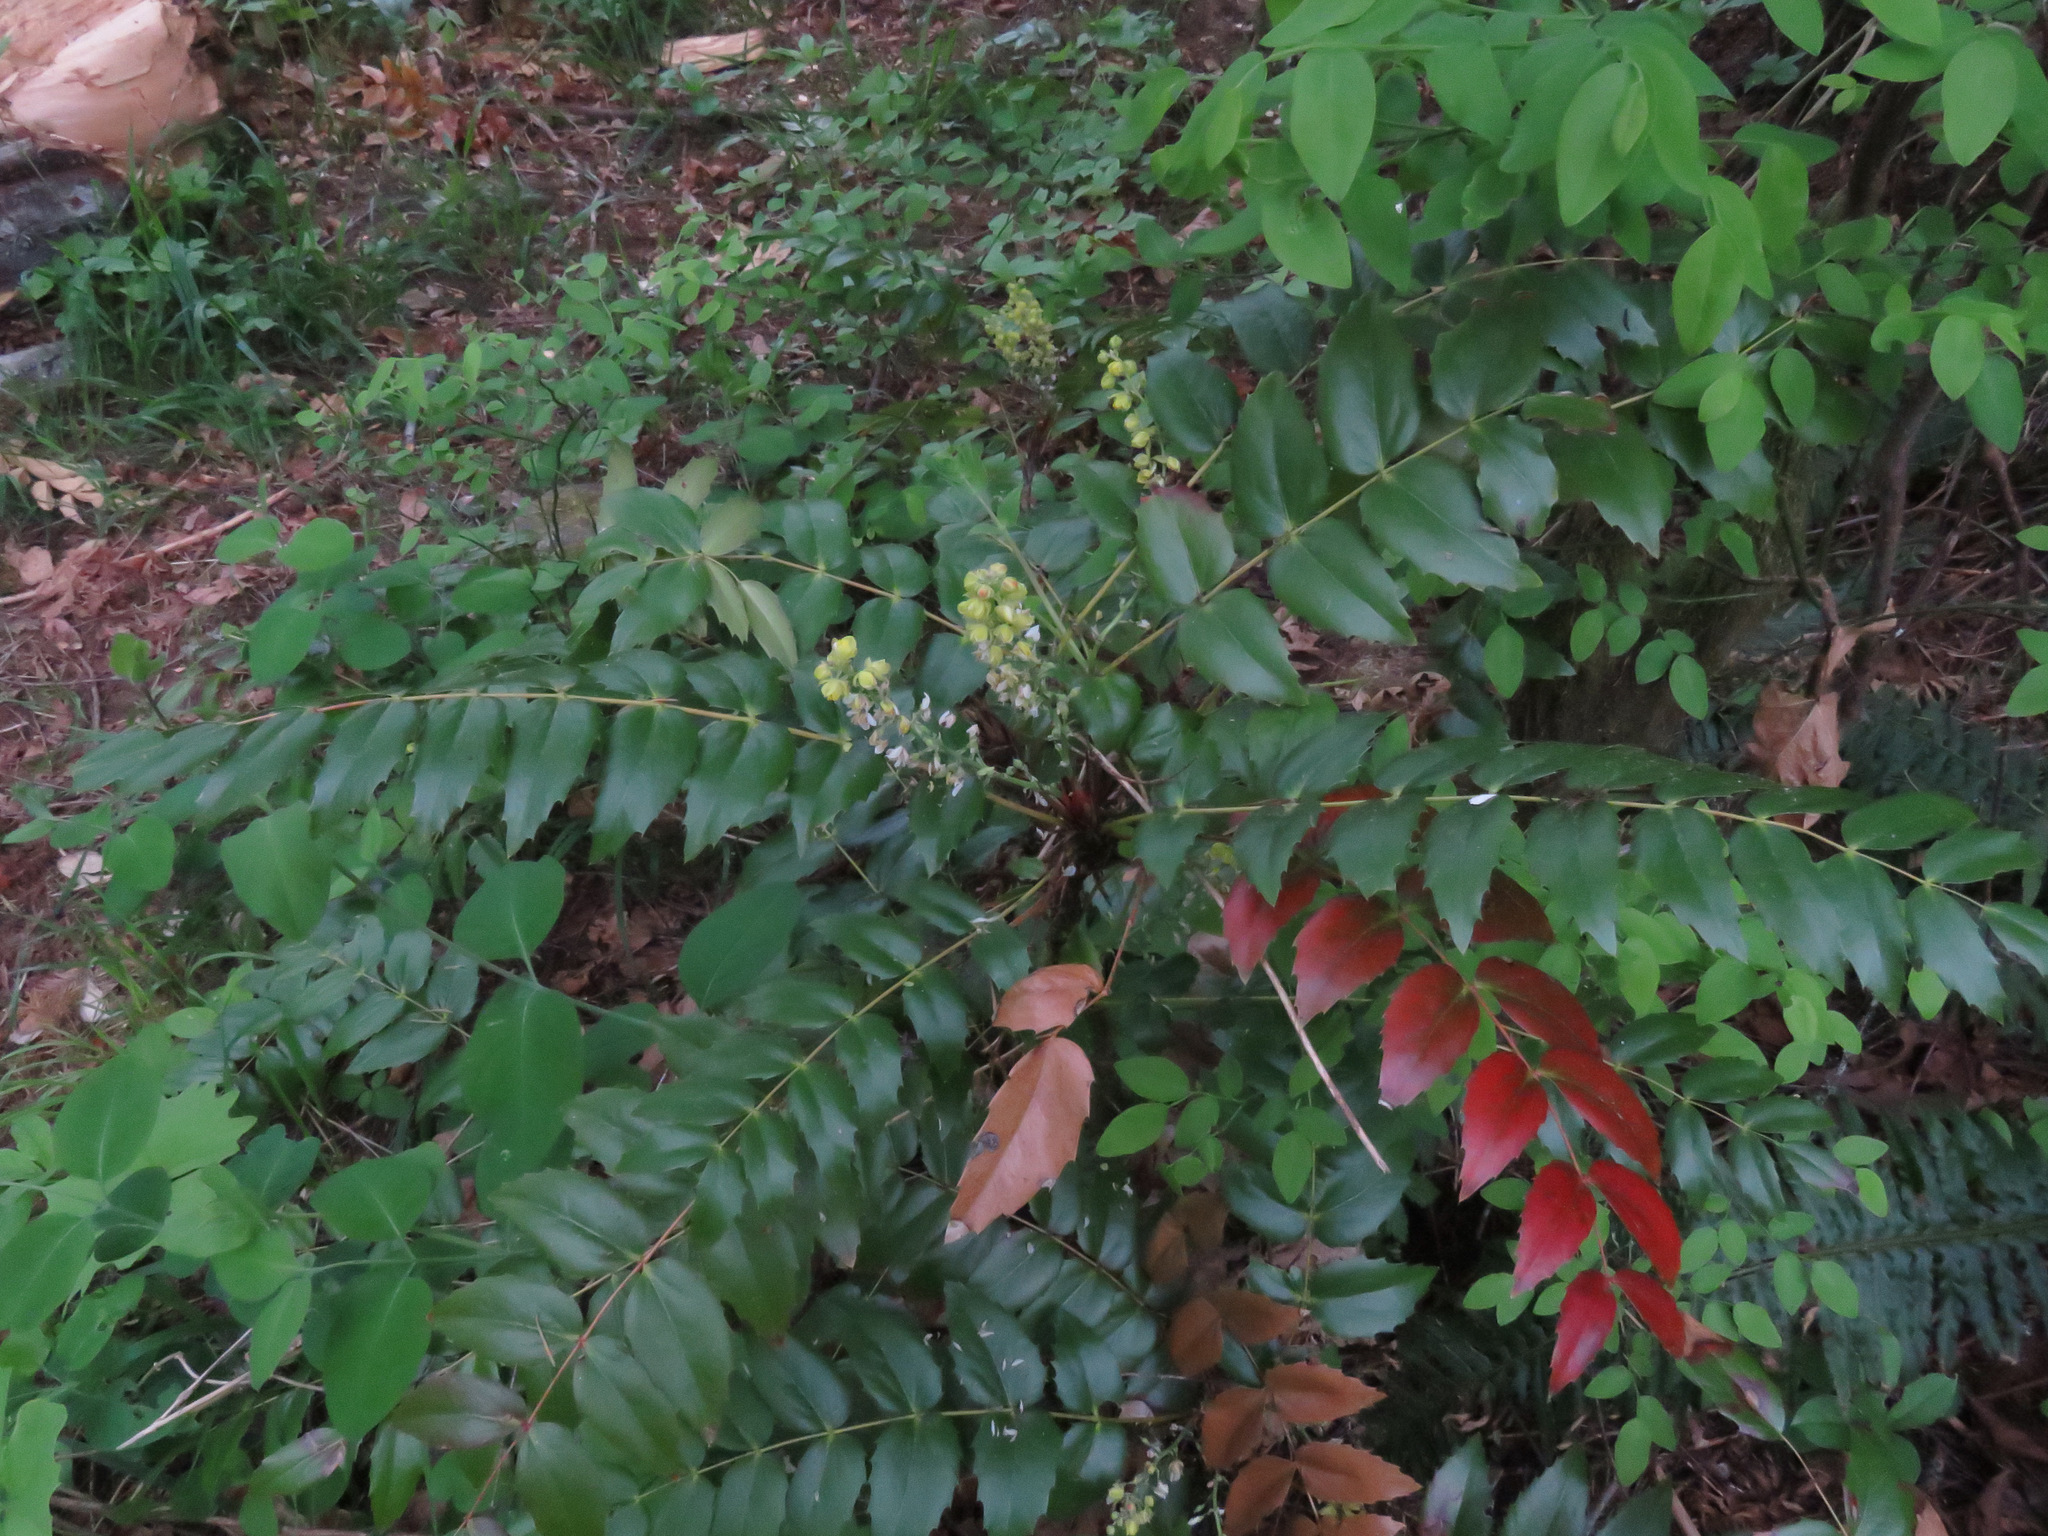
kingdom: Plantae
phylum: Tracheophyta
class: Magnoliopsida
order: Ranunculales
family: Berberidaceae
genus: Mahonia
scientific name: Mahonia nervosa
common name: Cascade oregon-grape
